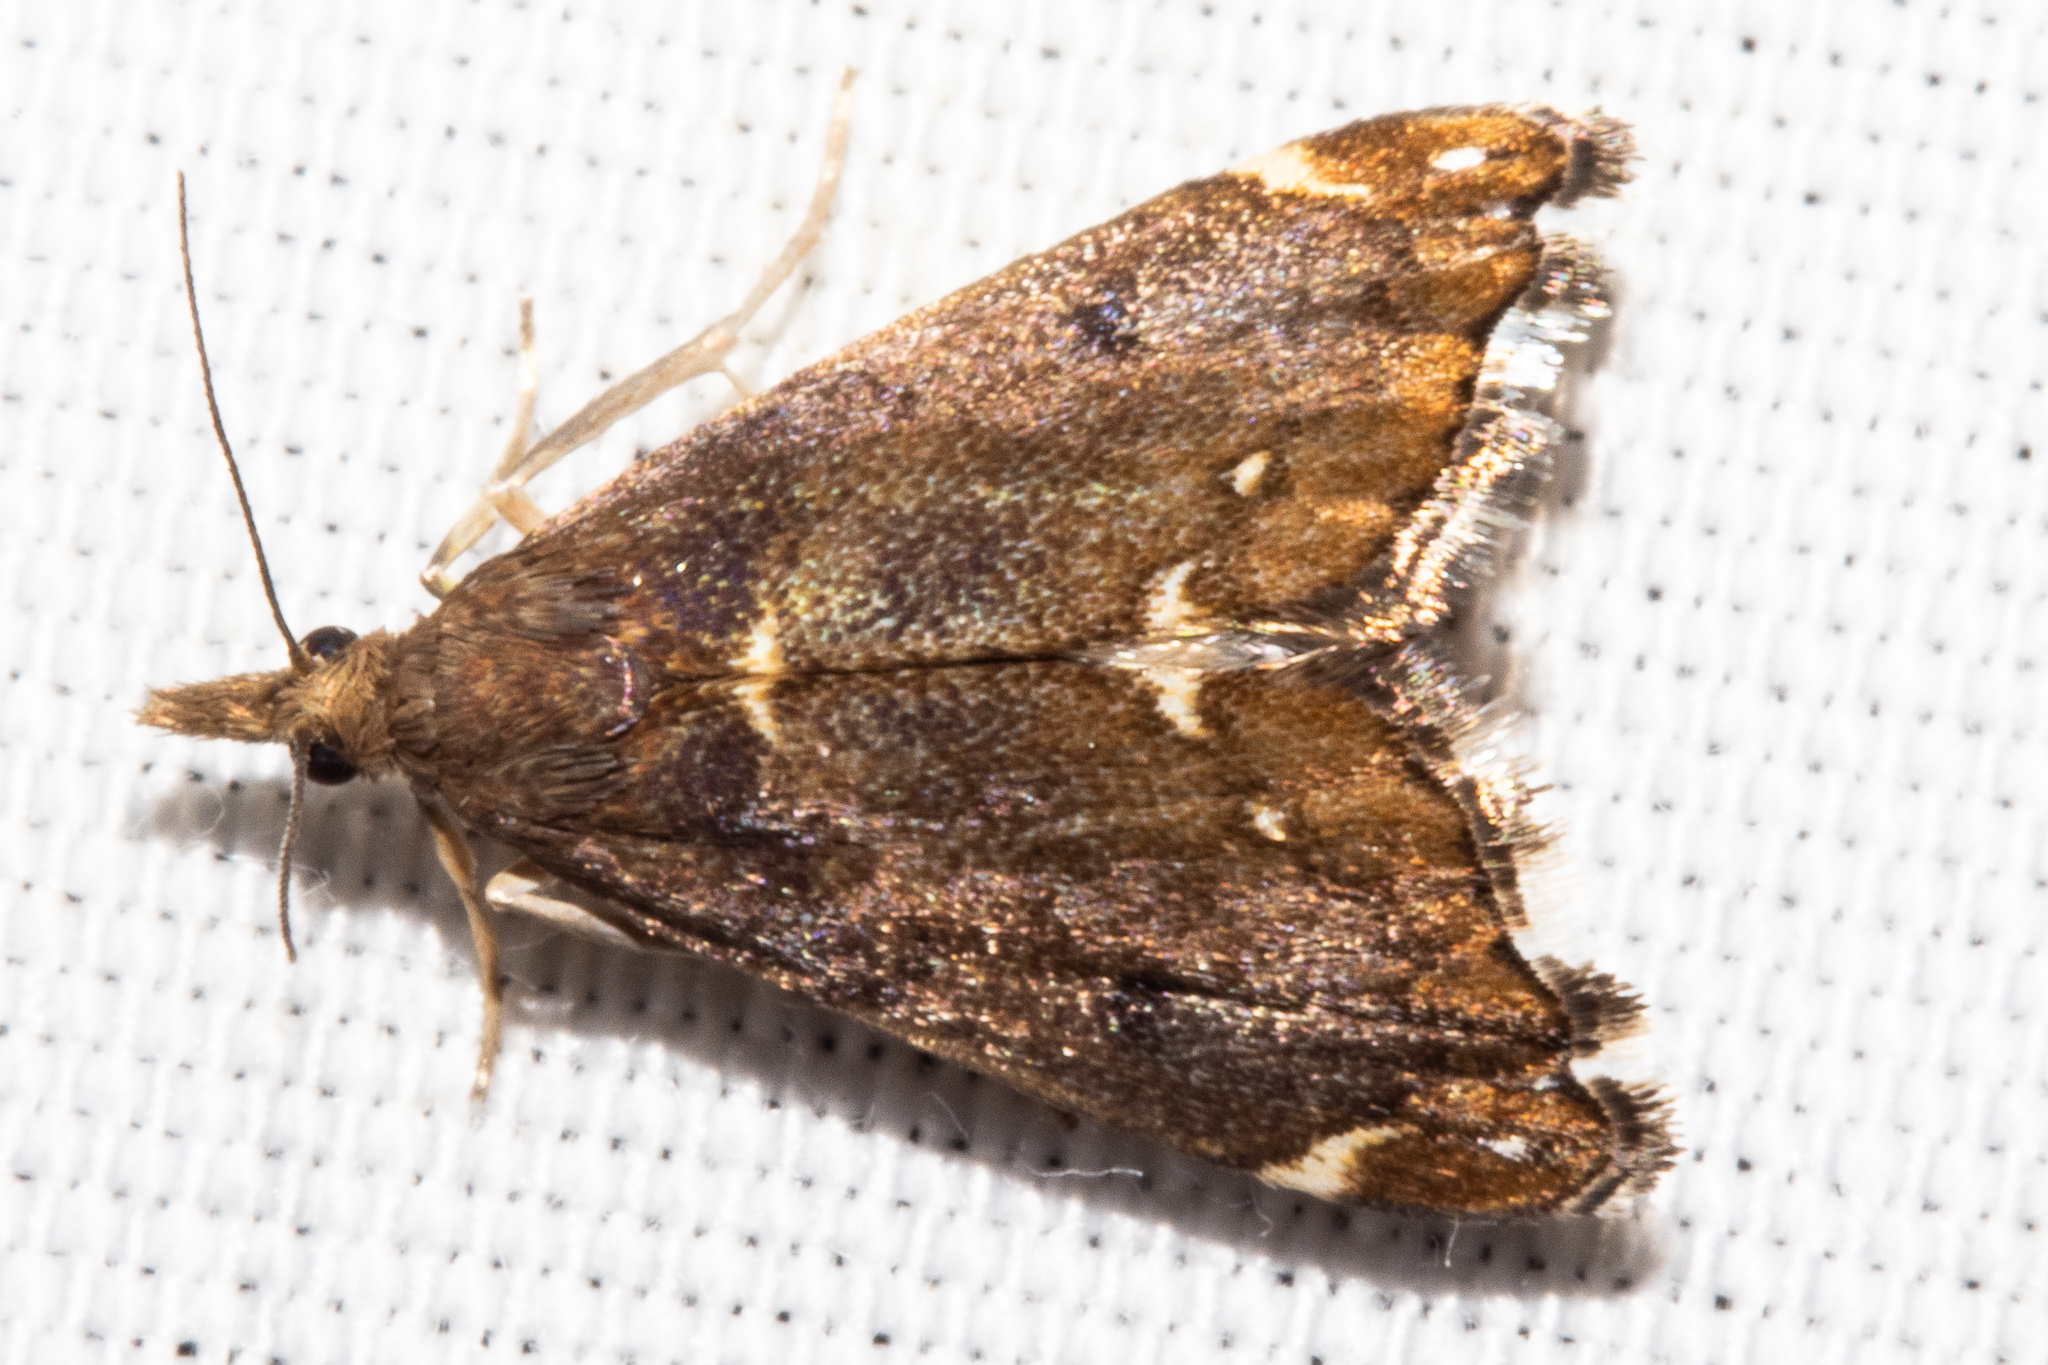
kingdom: Animalia
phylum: Arthropoda
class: Insecta
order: Lepidoptera
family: Crambidae
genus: Glaucocharis
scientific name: Glaucocharis pyrsophanes
